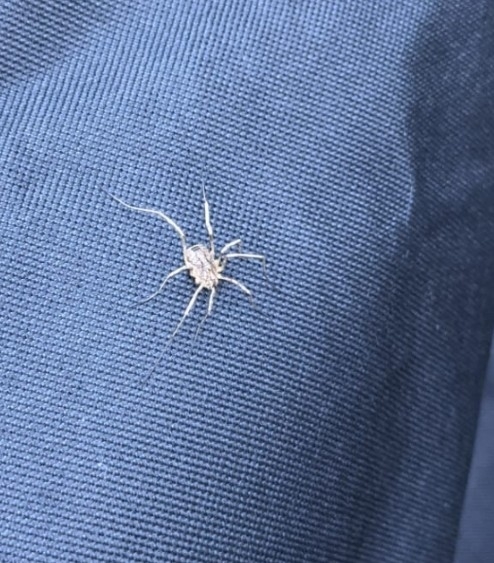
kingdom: Animalia
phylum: Arthropoda
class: Arachnida
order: Opiliones
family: Phalangiidae
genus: Odiellus
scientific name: Odiellus spinosus
